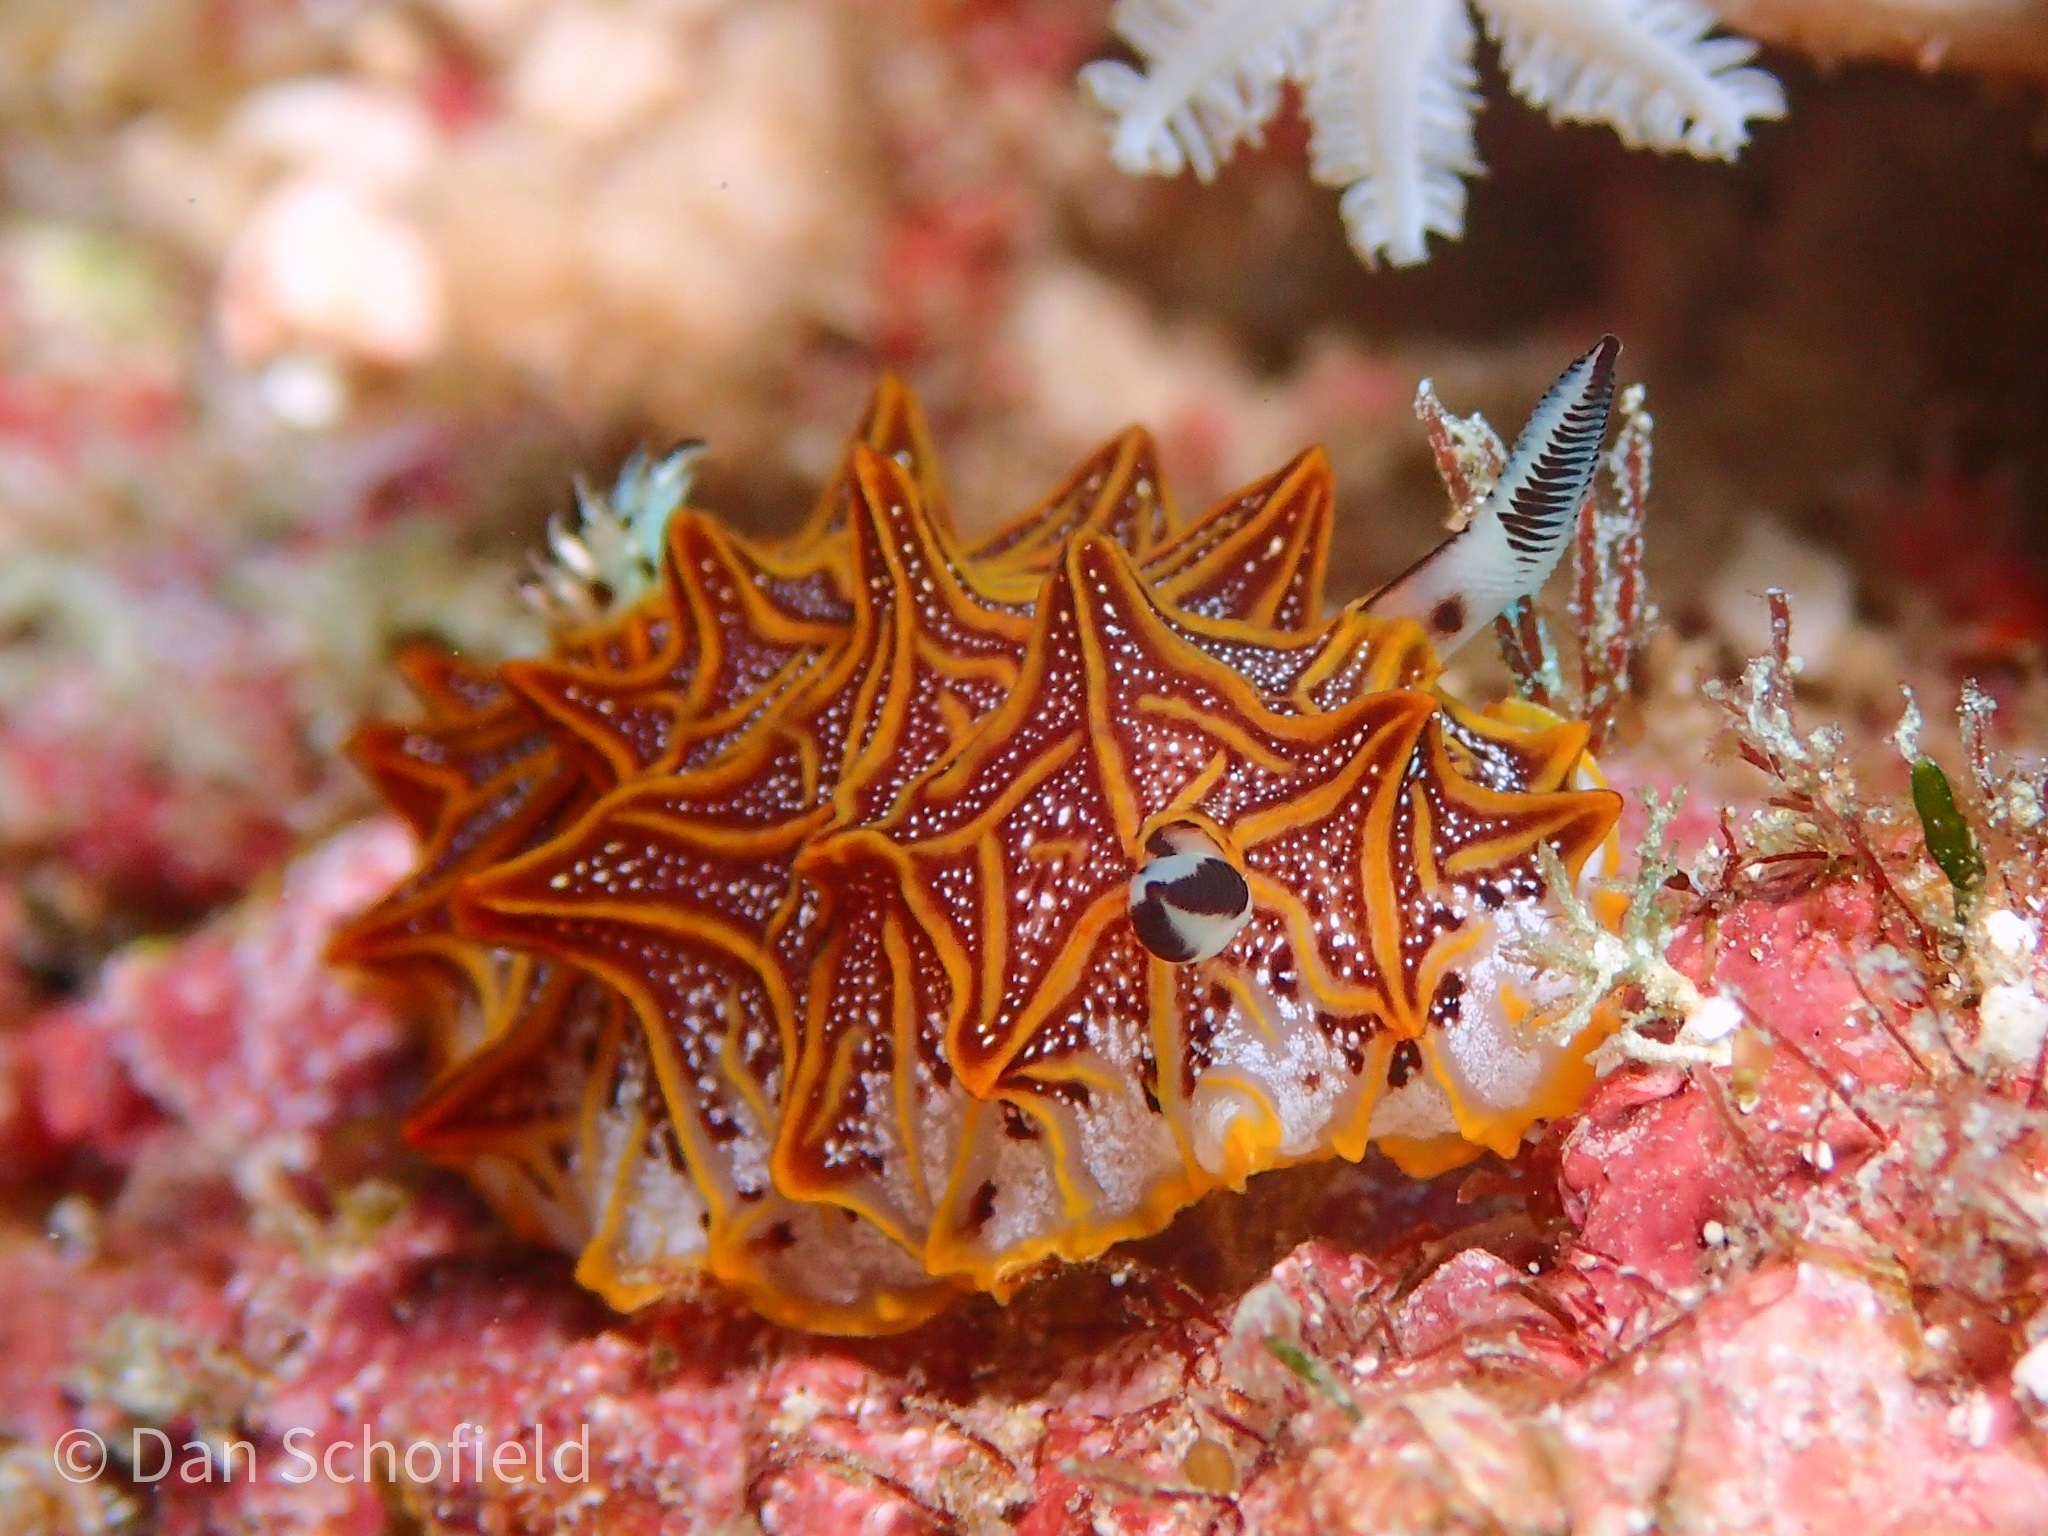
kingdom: Animalia
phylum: Mollusca
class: Gastropoda
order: Nudibranchia
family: Discodorididae
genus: Halgerda
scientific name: Halgerda tessellata
